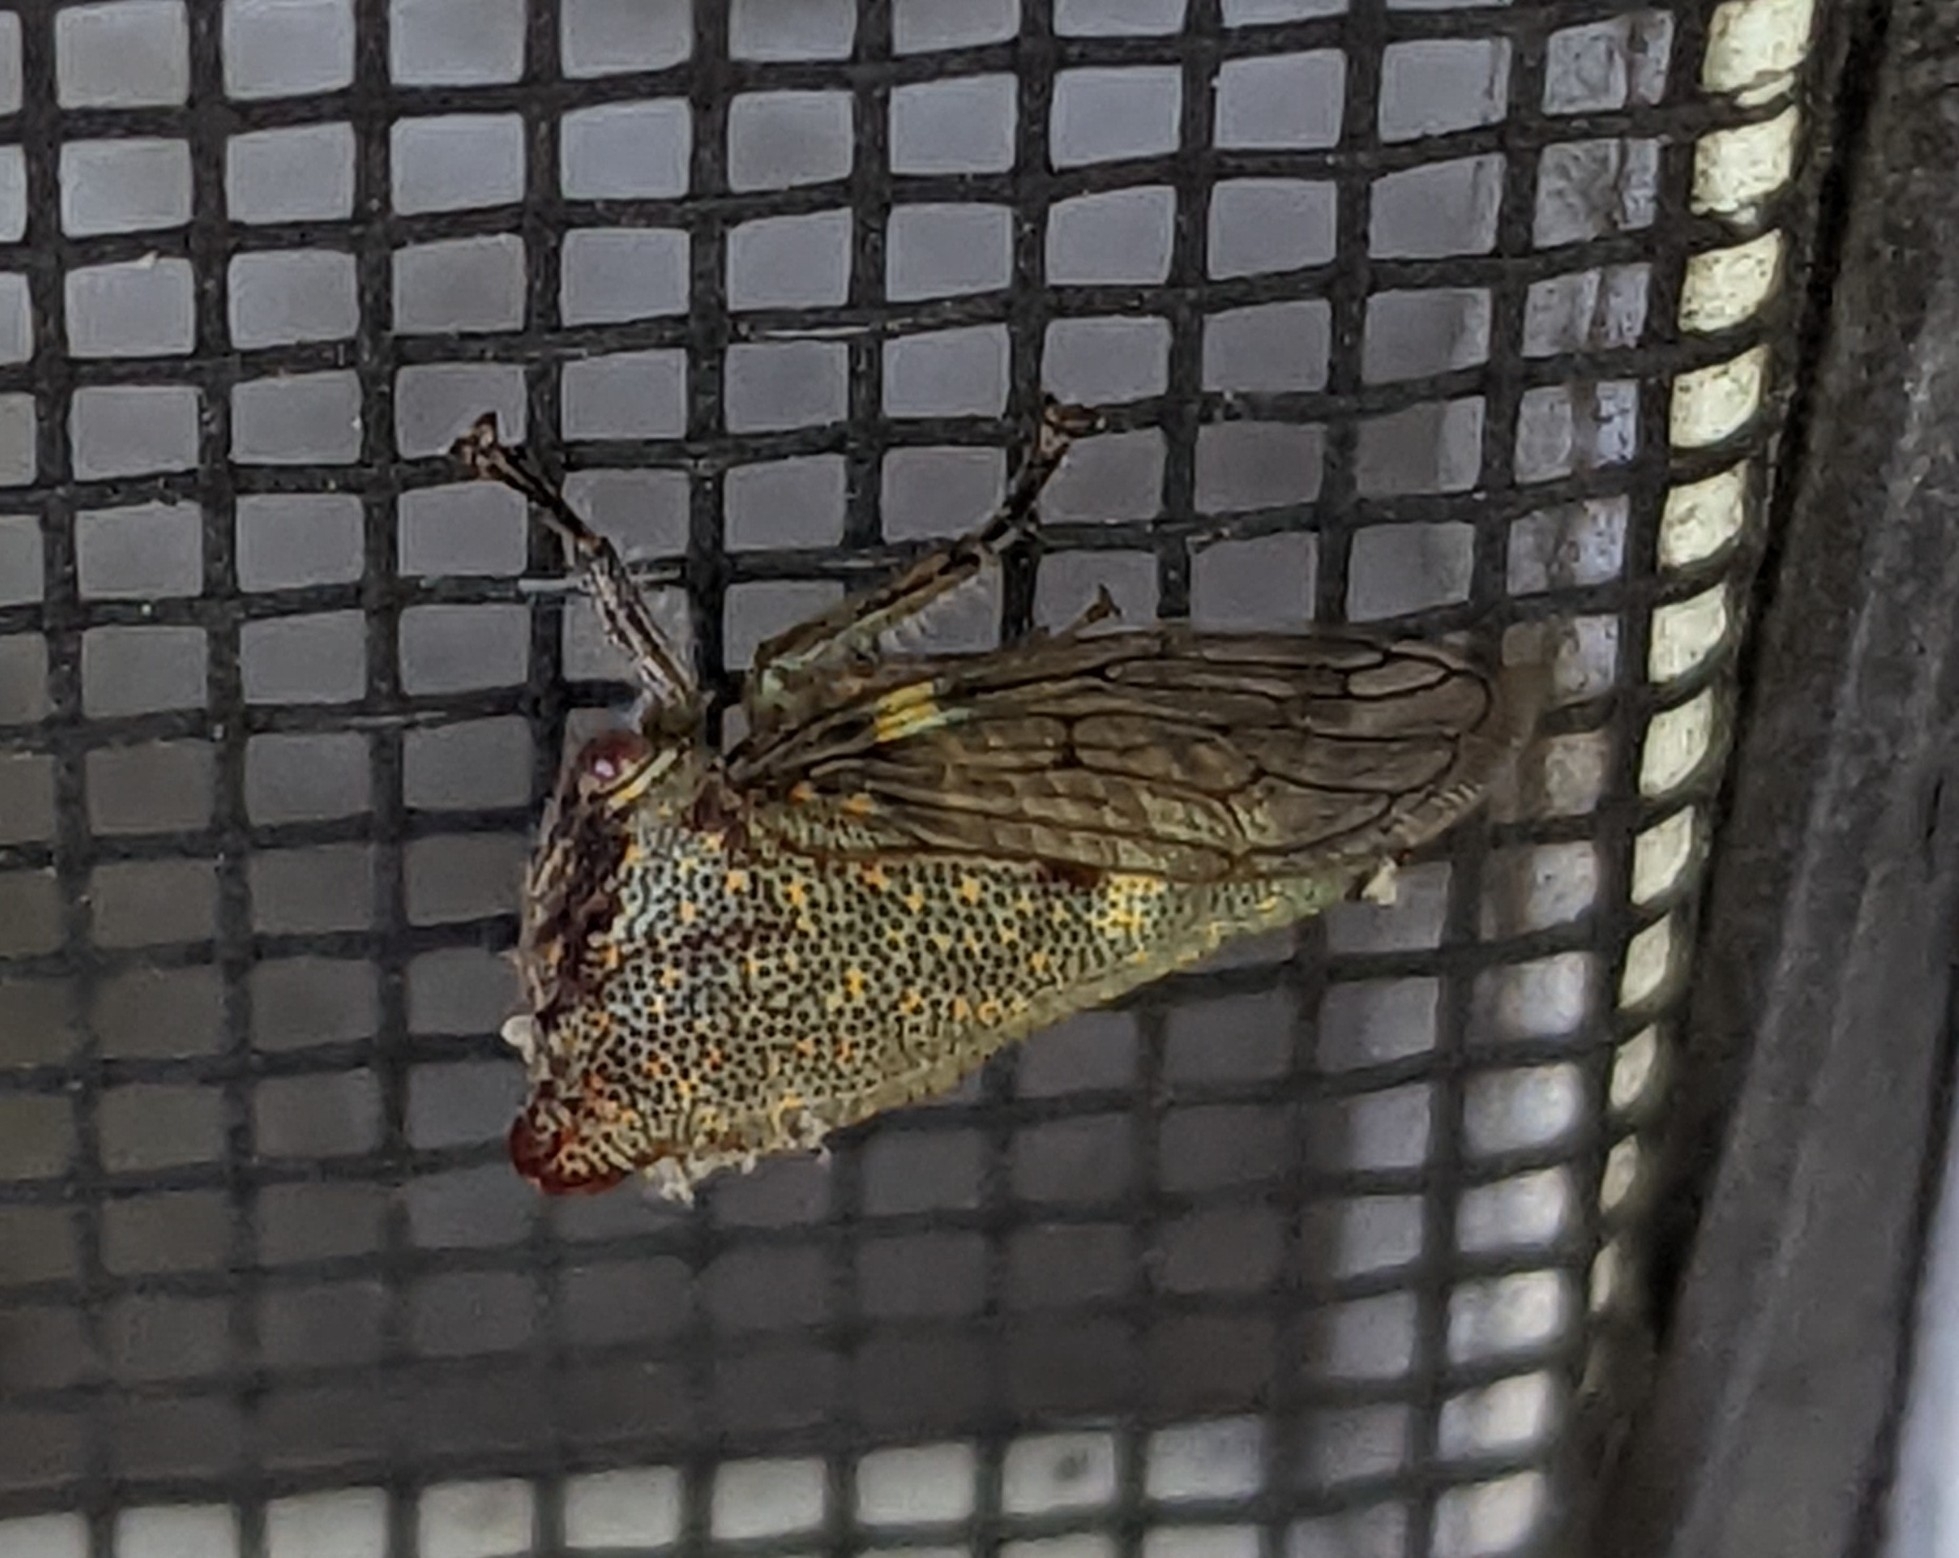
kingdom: Animalia
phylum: Arthropoda
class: Insecta
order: Hemiptera
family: Membracidae
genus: Platycotis
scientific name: Platycotis vittatus
